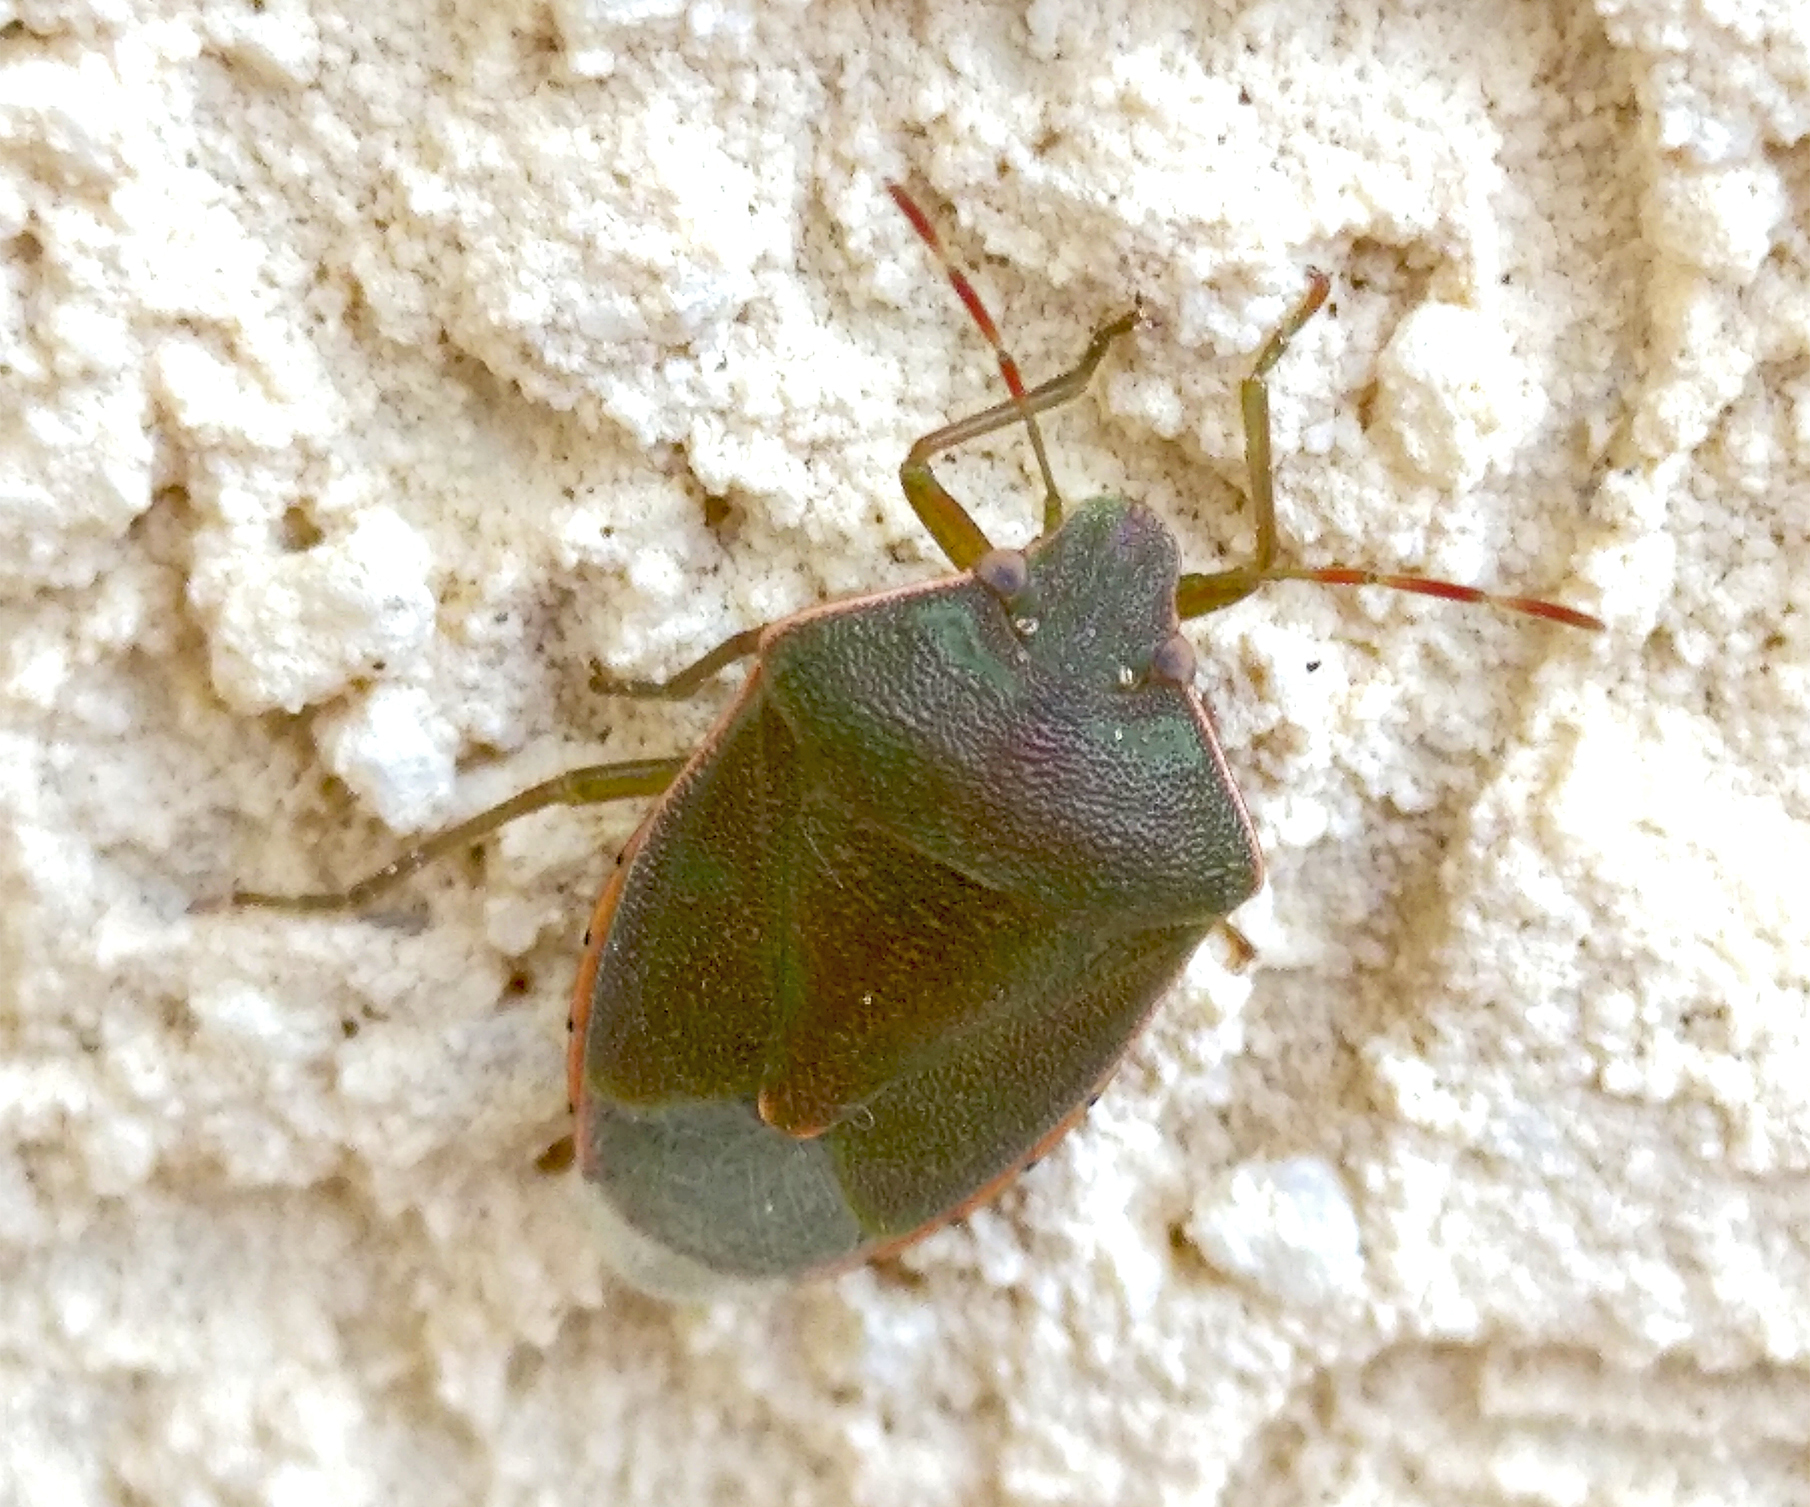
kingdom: Animalia
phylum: Arthropoda
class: Insecta
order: Hemiptera
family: Pentatomidae
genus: Acrosternum
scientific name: Acrosternum heegeri
